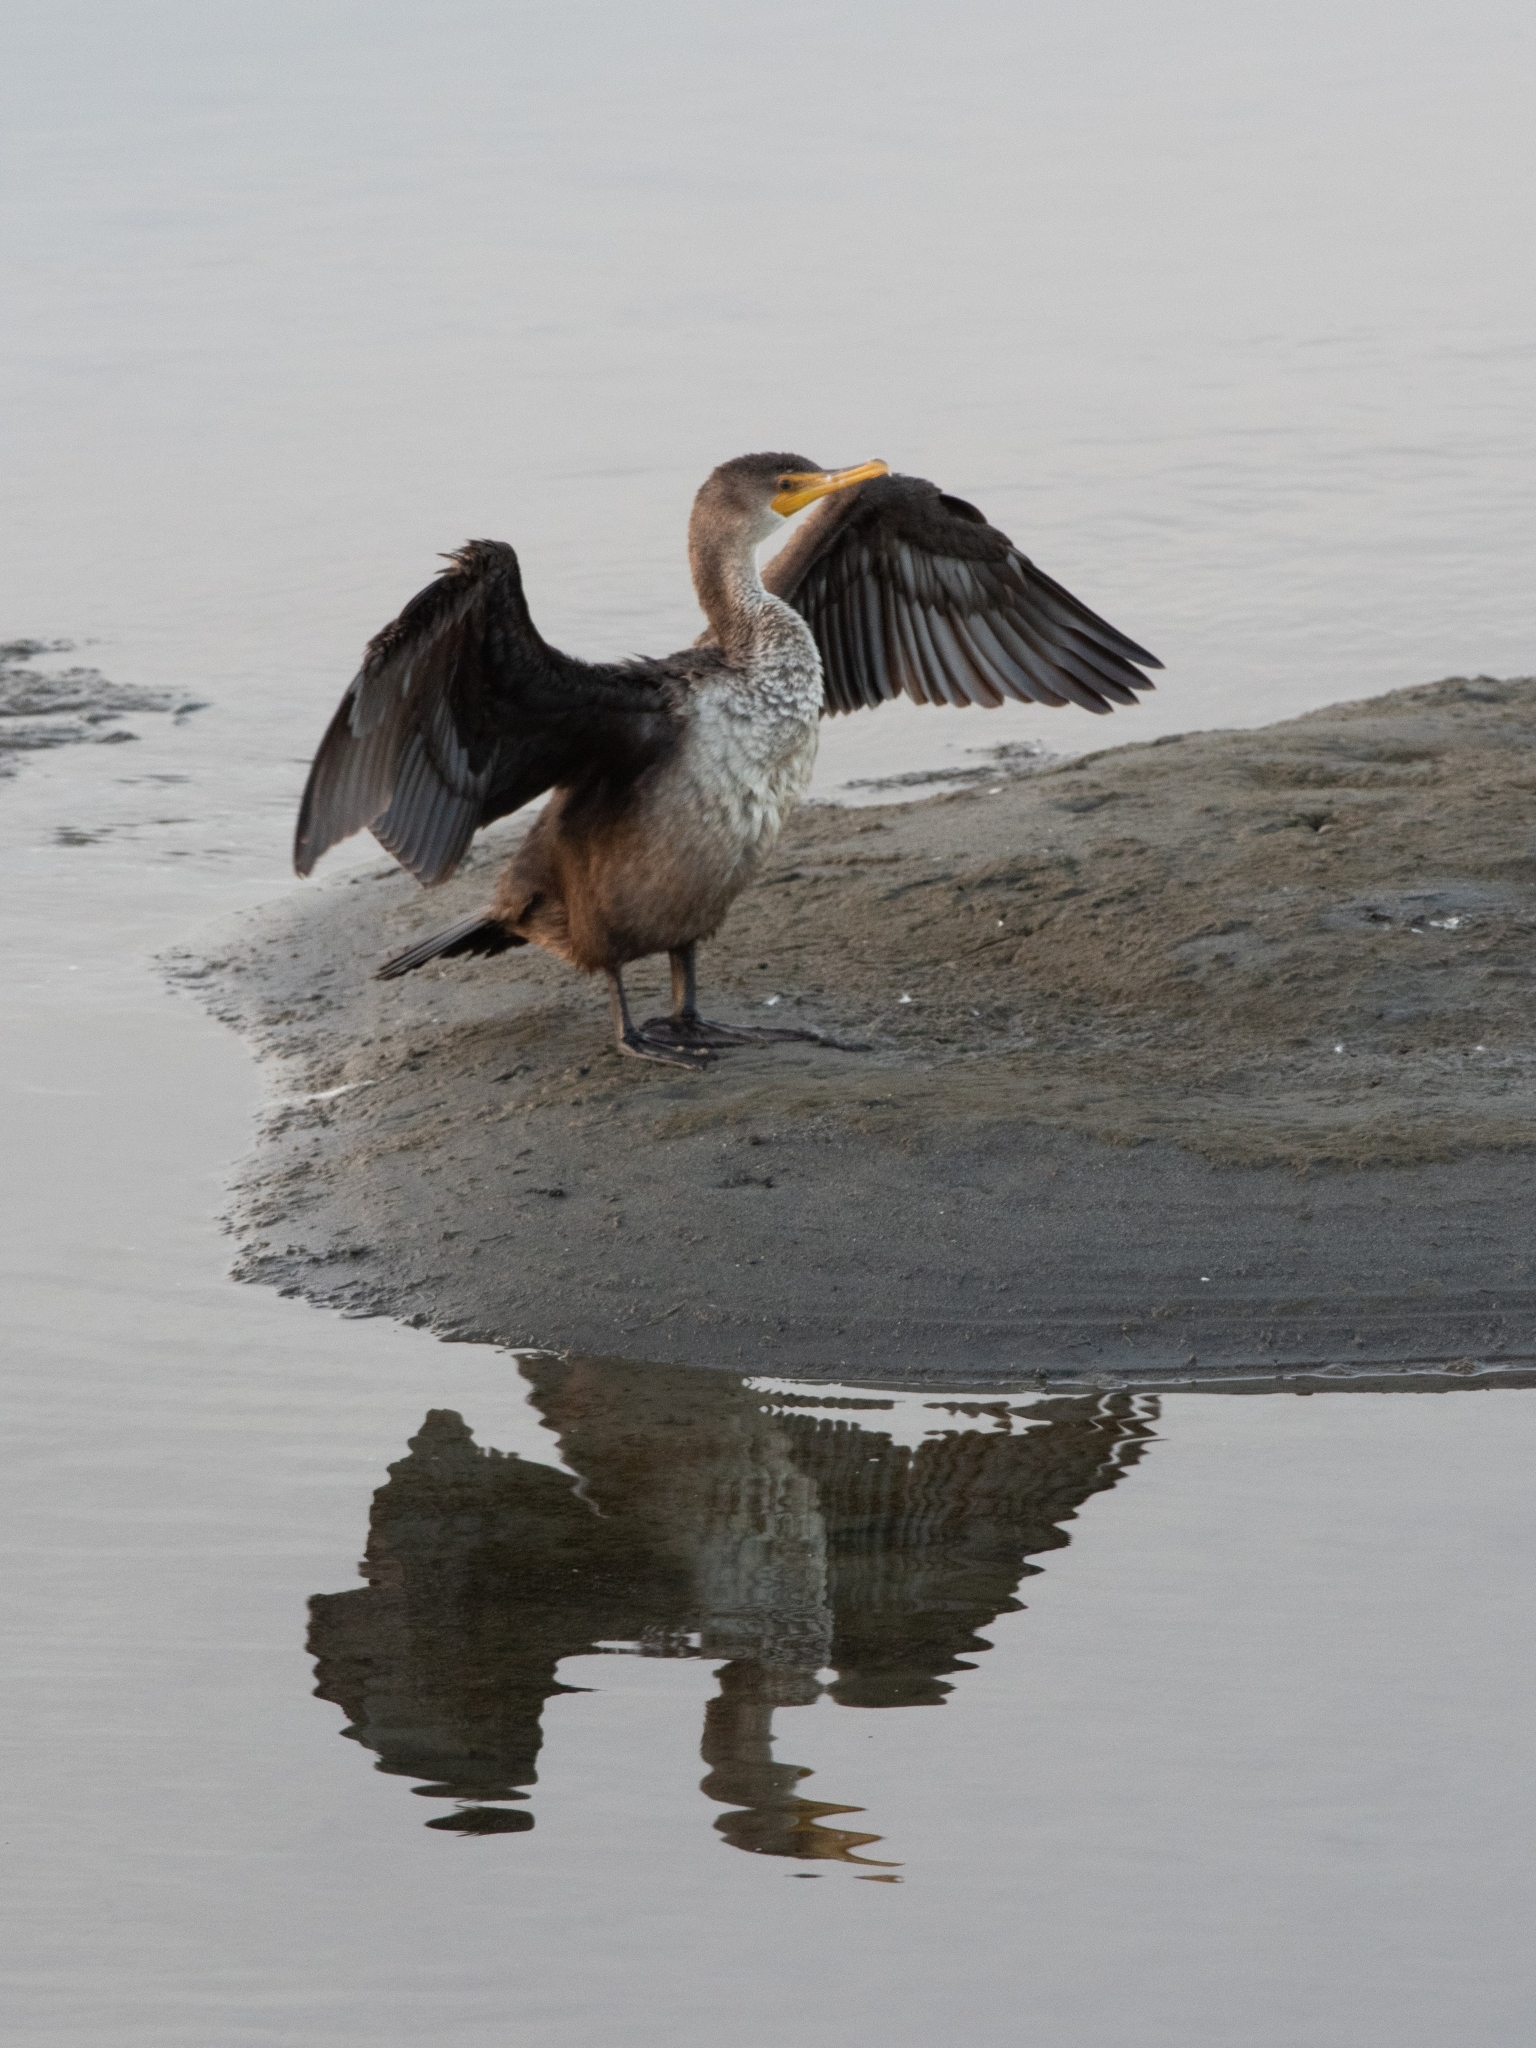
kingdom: Animalia
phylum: Chordata
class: Aves
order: Suliformes
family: Phalacrocoracidae
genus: Phalacrocorax
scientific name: Phalacrocorax auritus
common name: Double-crested cormorant
